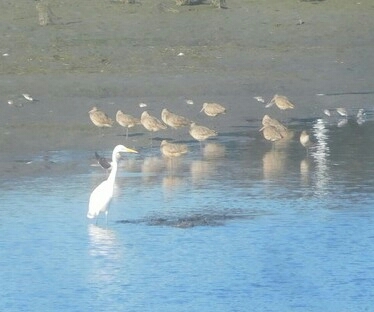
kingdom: Animalia
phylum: Chordata
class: Aves
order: Charadriiformes
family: Scolopacidae
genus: Limosa
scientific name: Limosa fedoa
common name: Marbled godwit
